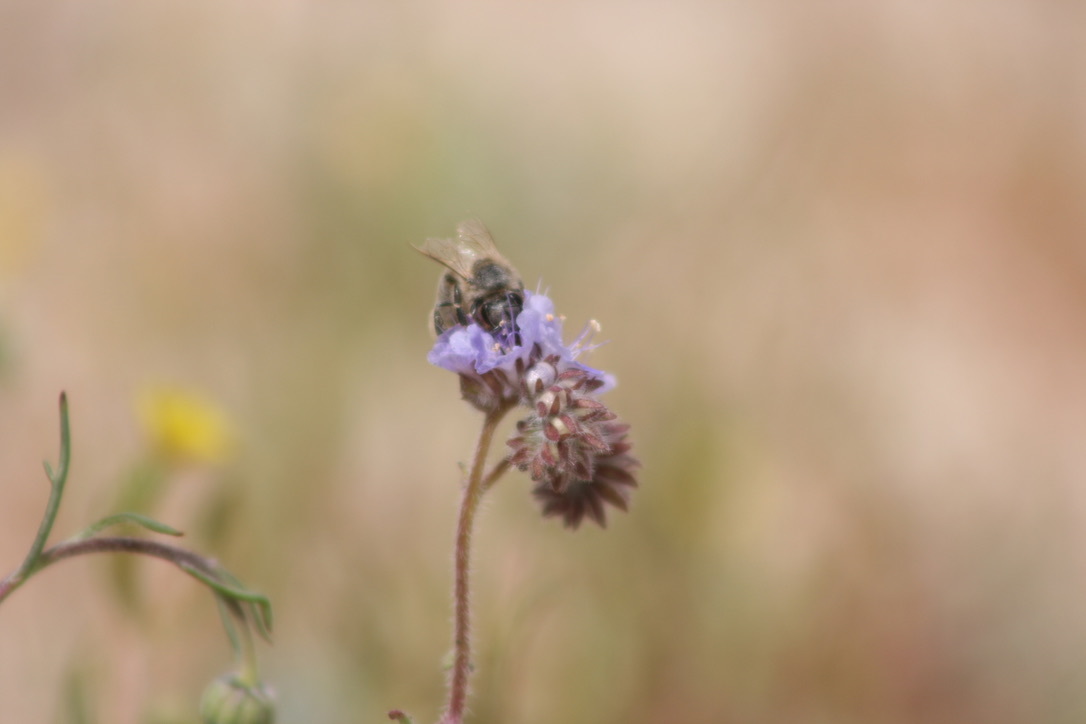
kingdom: Animalia
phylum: Arthropoda
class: Insecta
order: Hymenoptera
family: Apidae
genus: Apis
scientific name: Apis mellifera
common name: Honey bee
